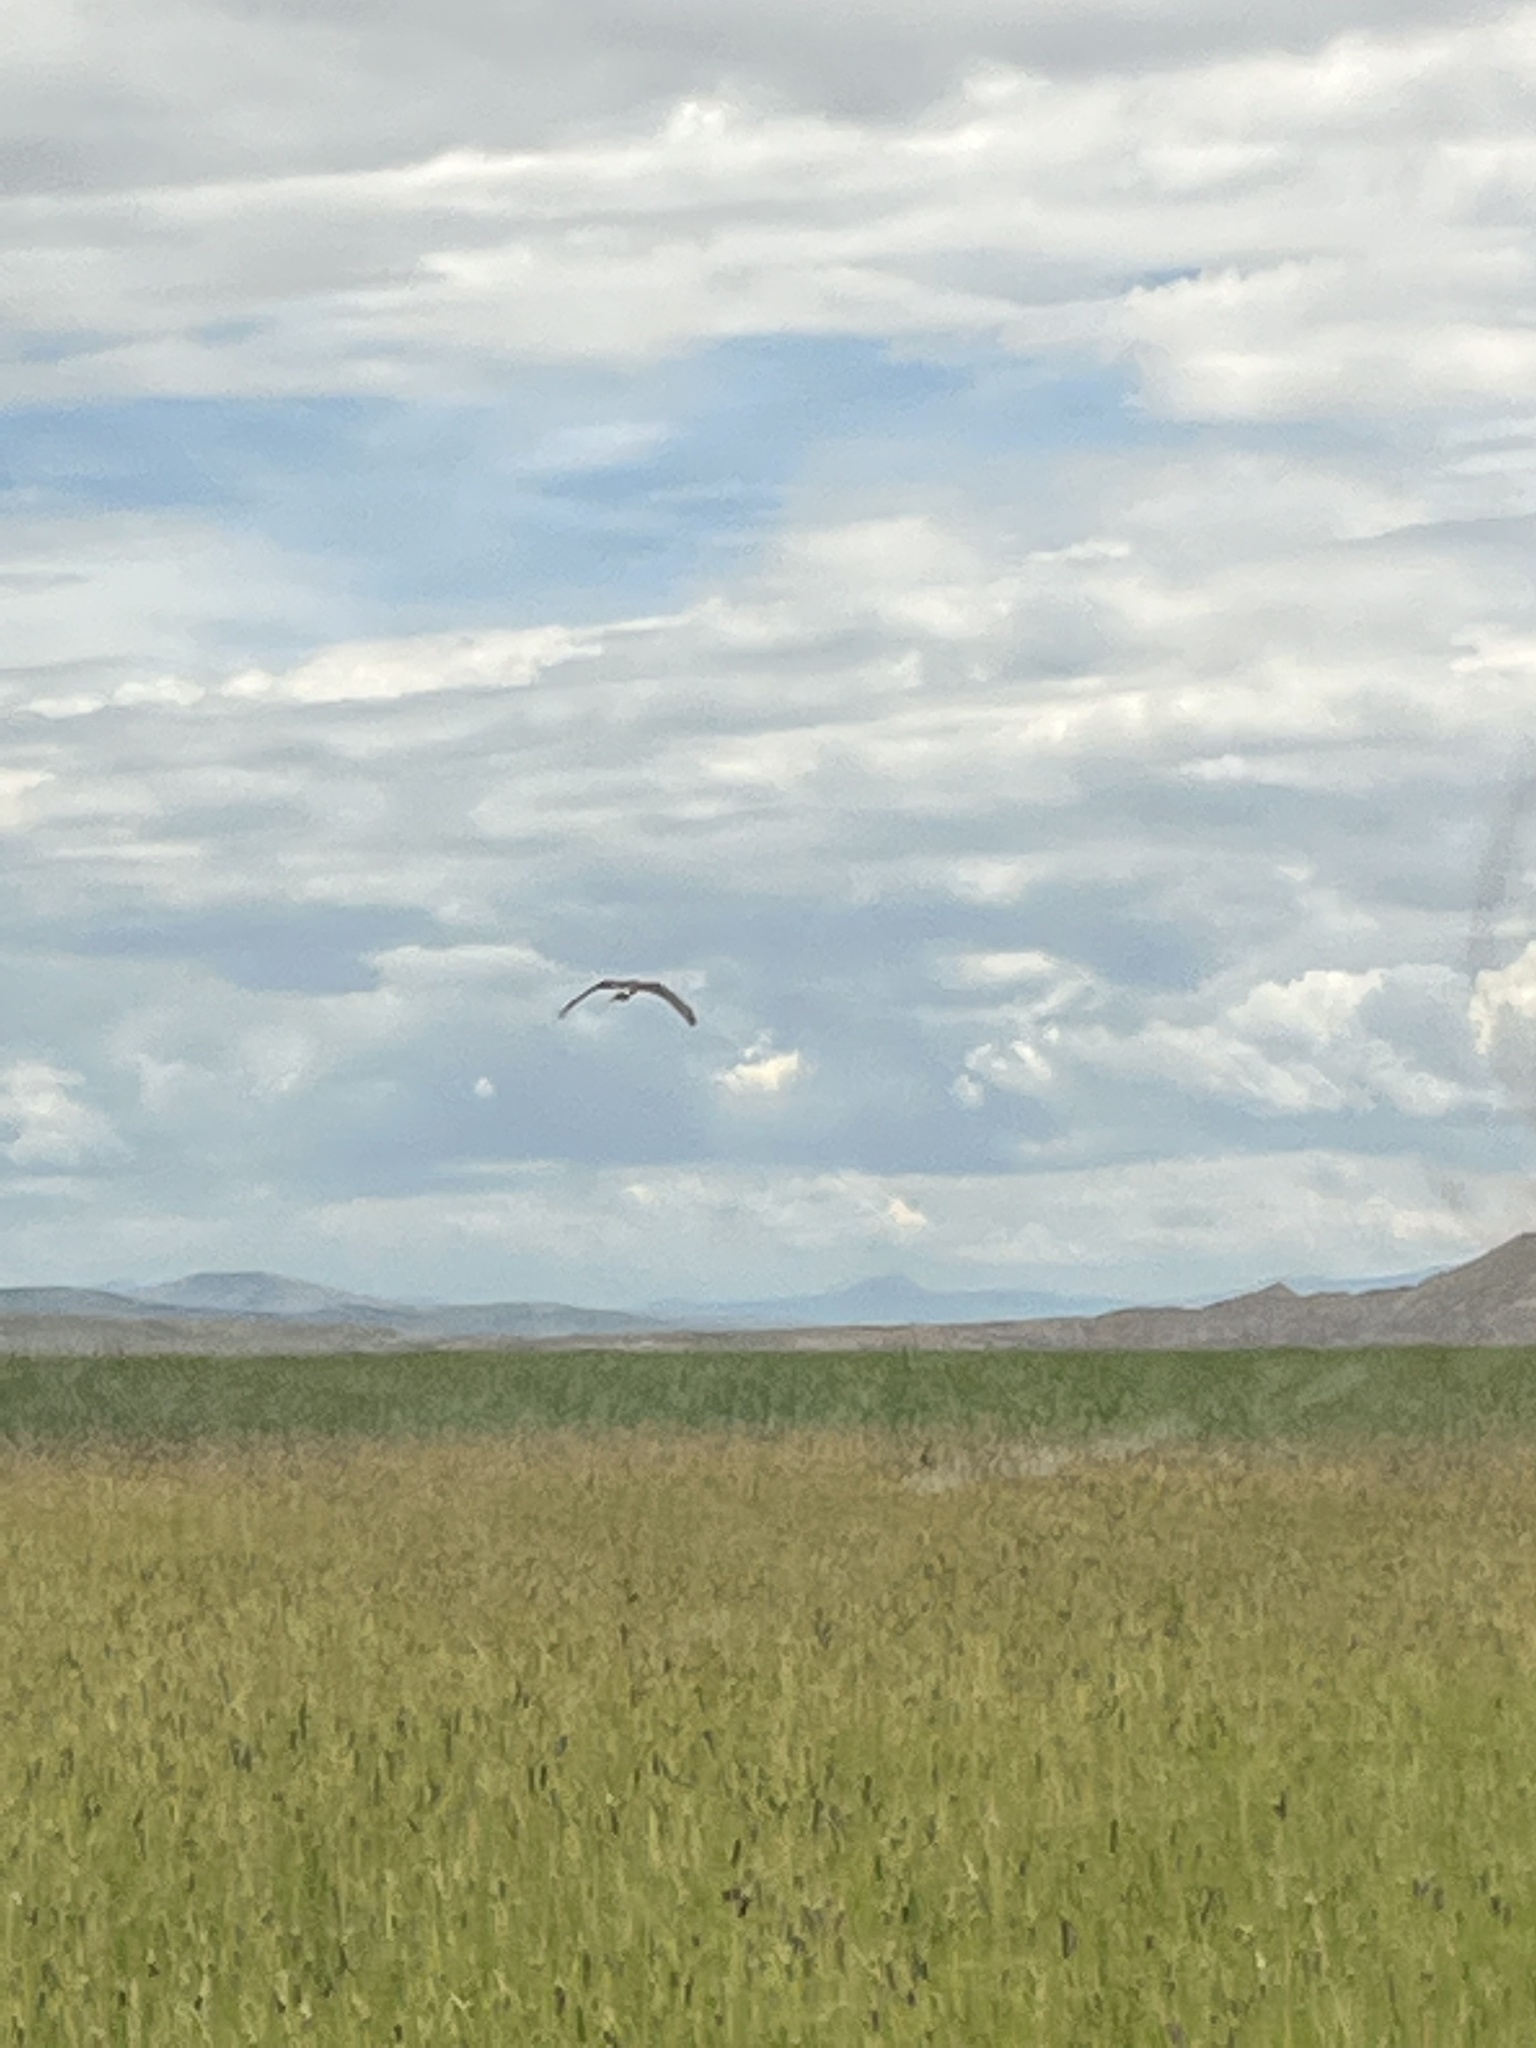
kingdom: Animalia
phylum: Chordata
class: Aves
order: Accipitriformes
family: Accipitridae
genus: Circus
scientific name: Circus cyaneus
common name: Hen harrier
